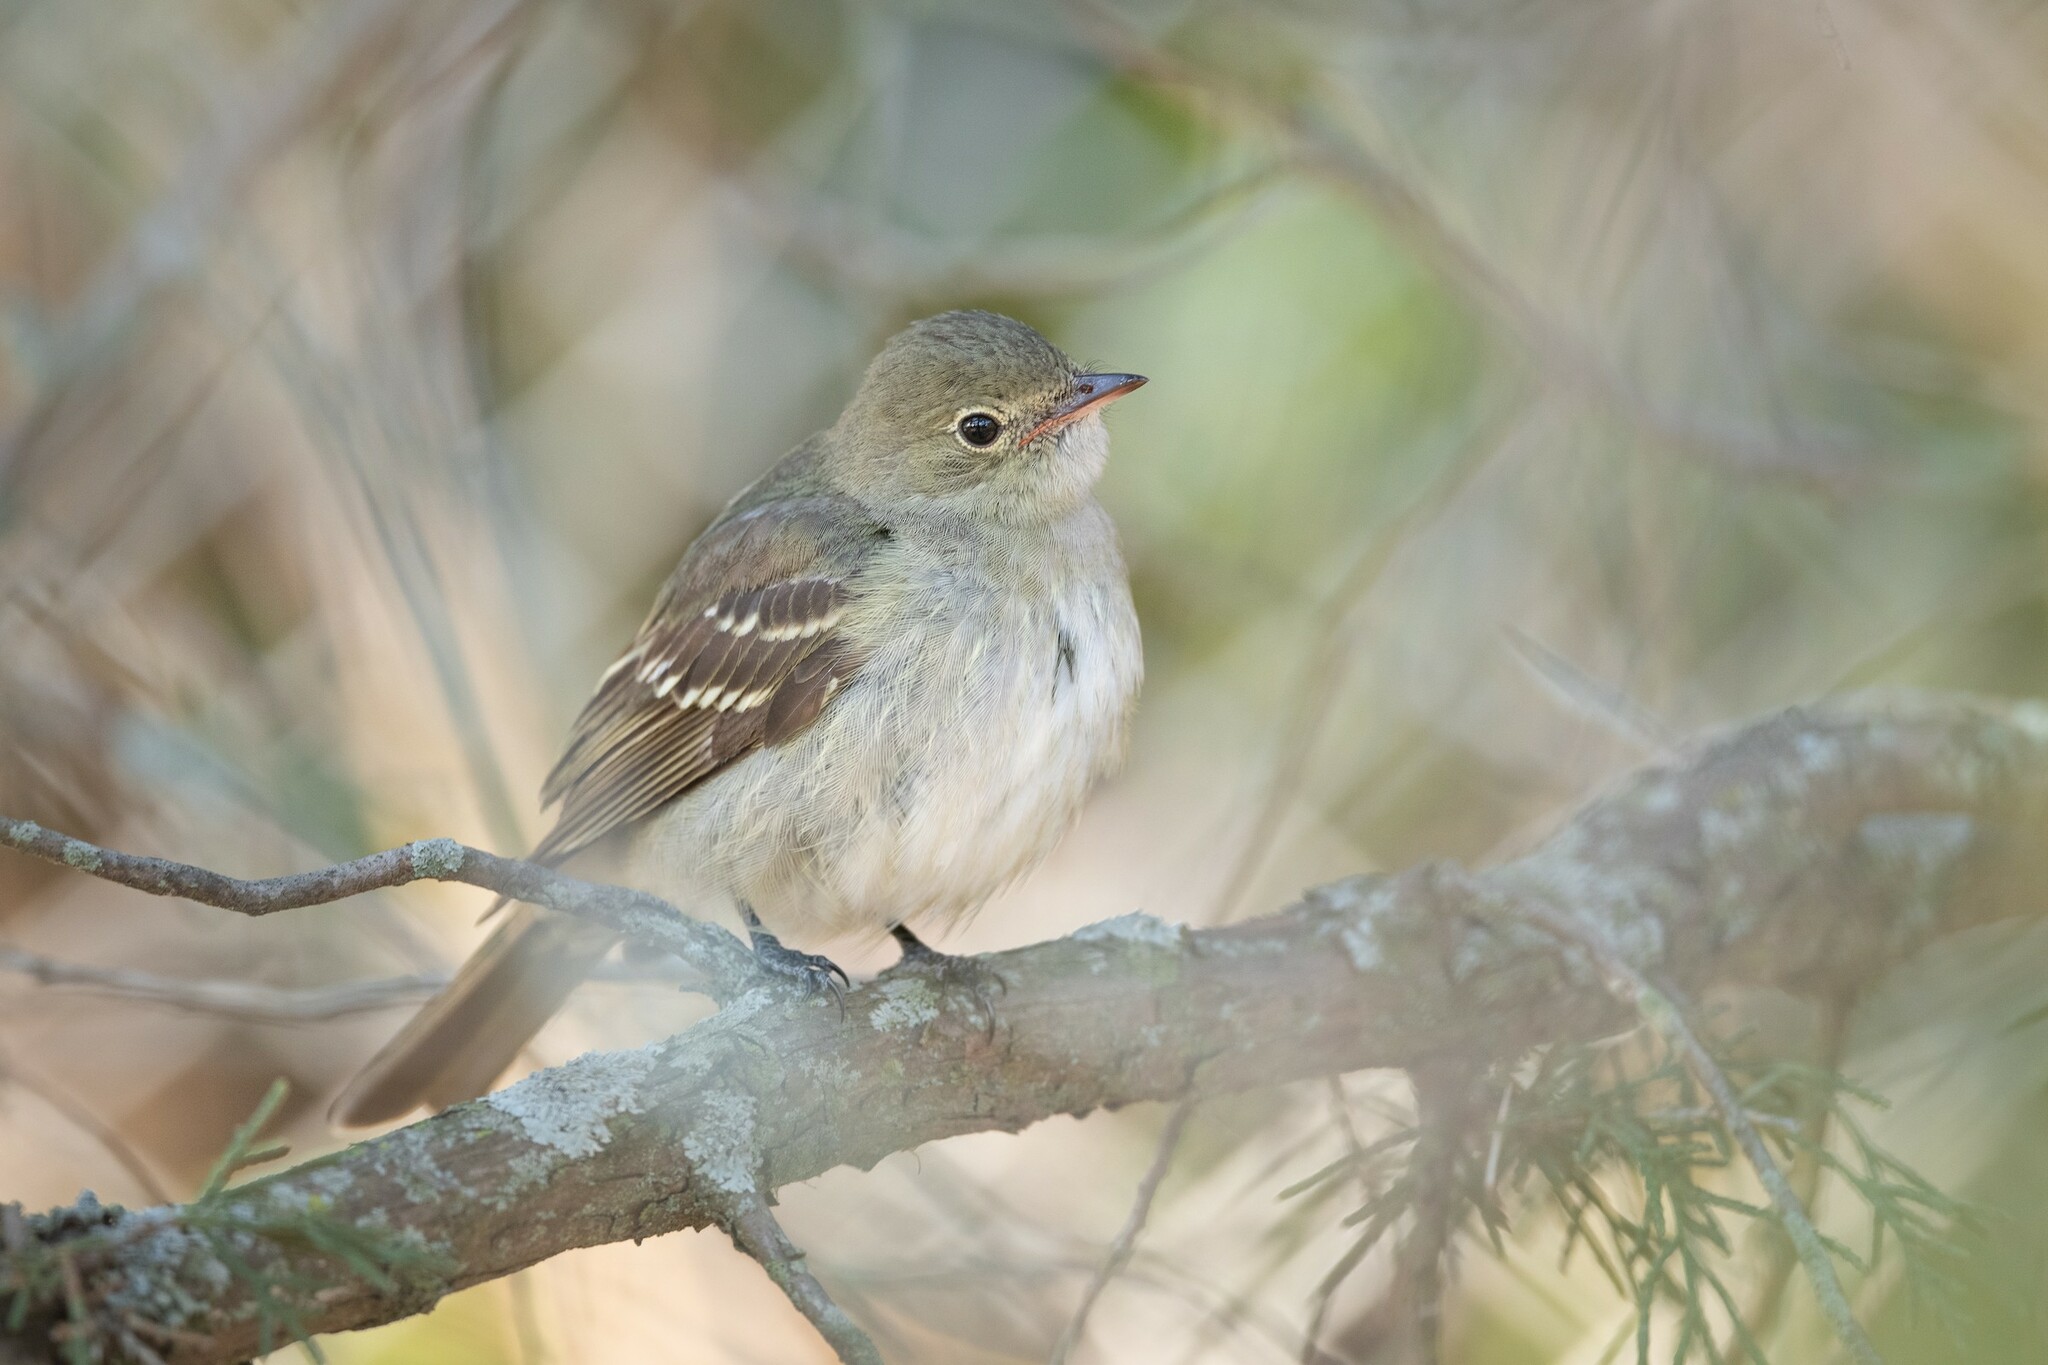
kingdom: Animalia
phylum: Chordata
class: Aves
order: Passeriformes
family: Tyrannidae
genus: Elaenia
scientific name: Elaenia parvirostris
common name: Small-billed elaenia
